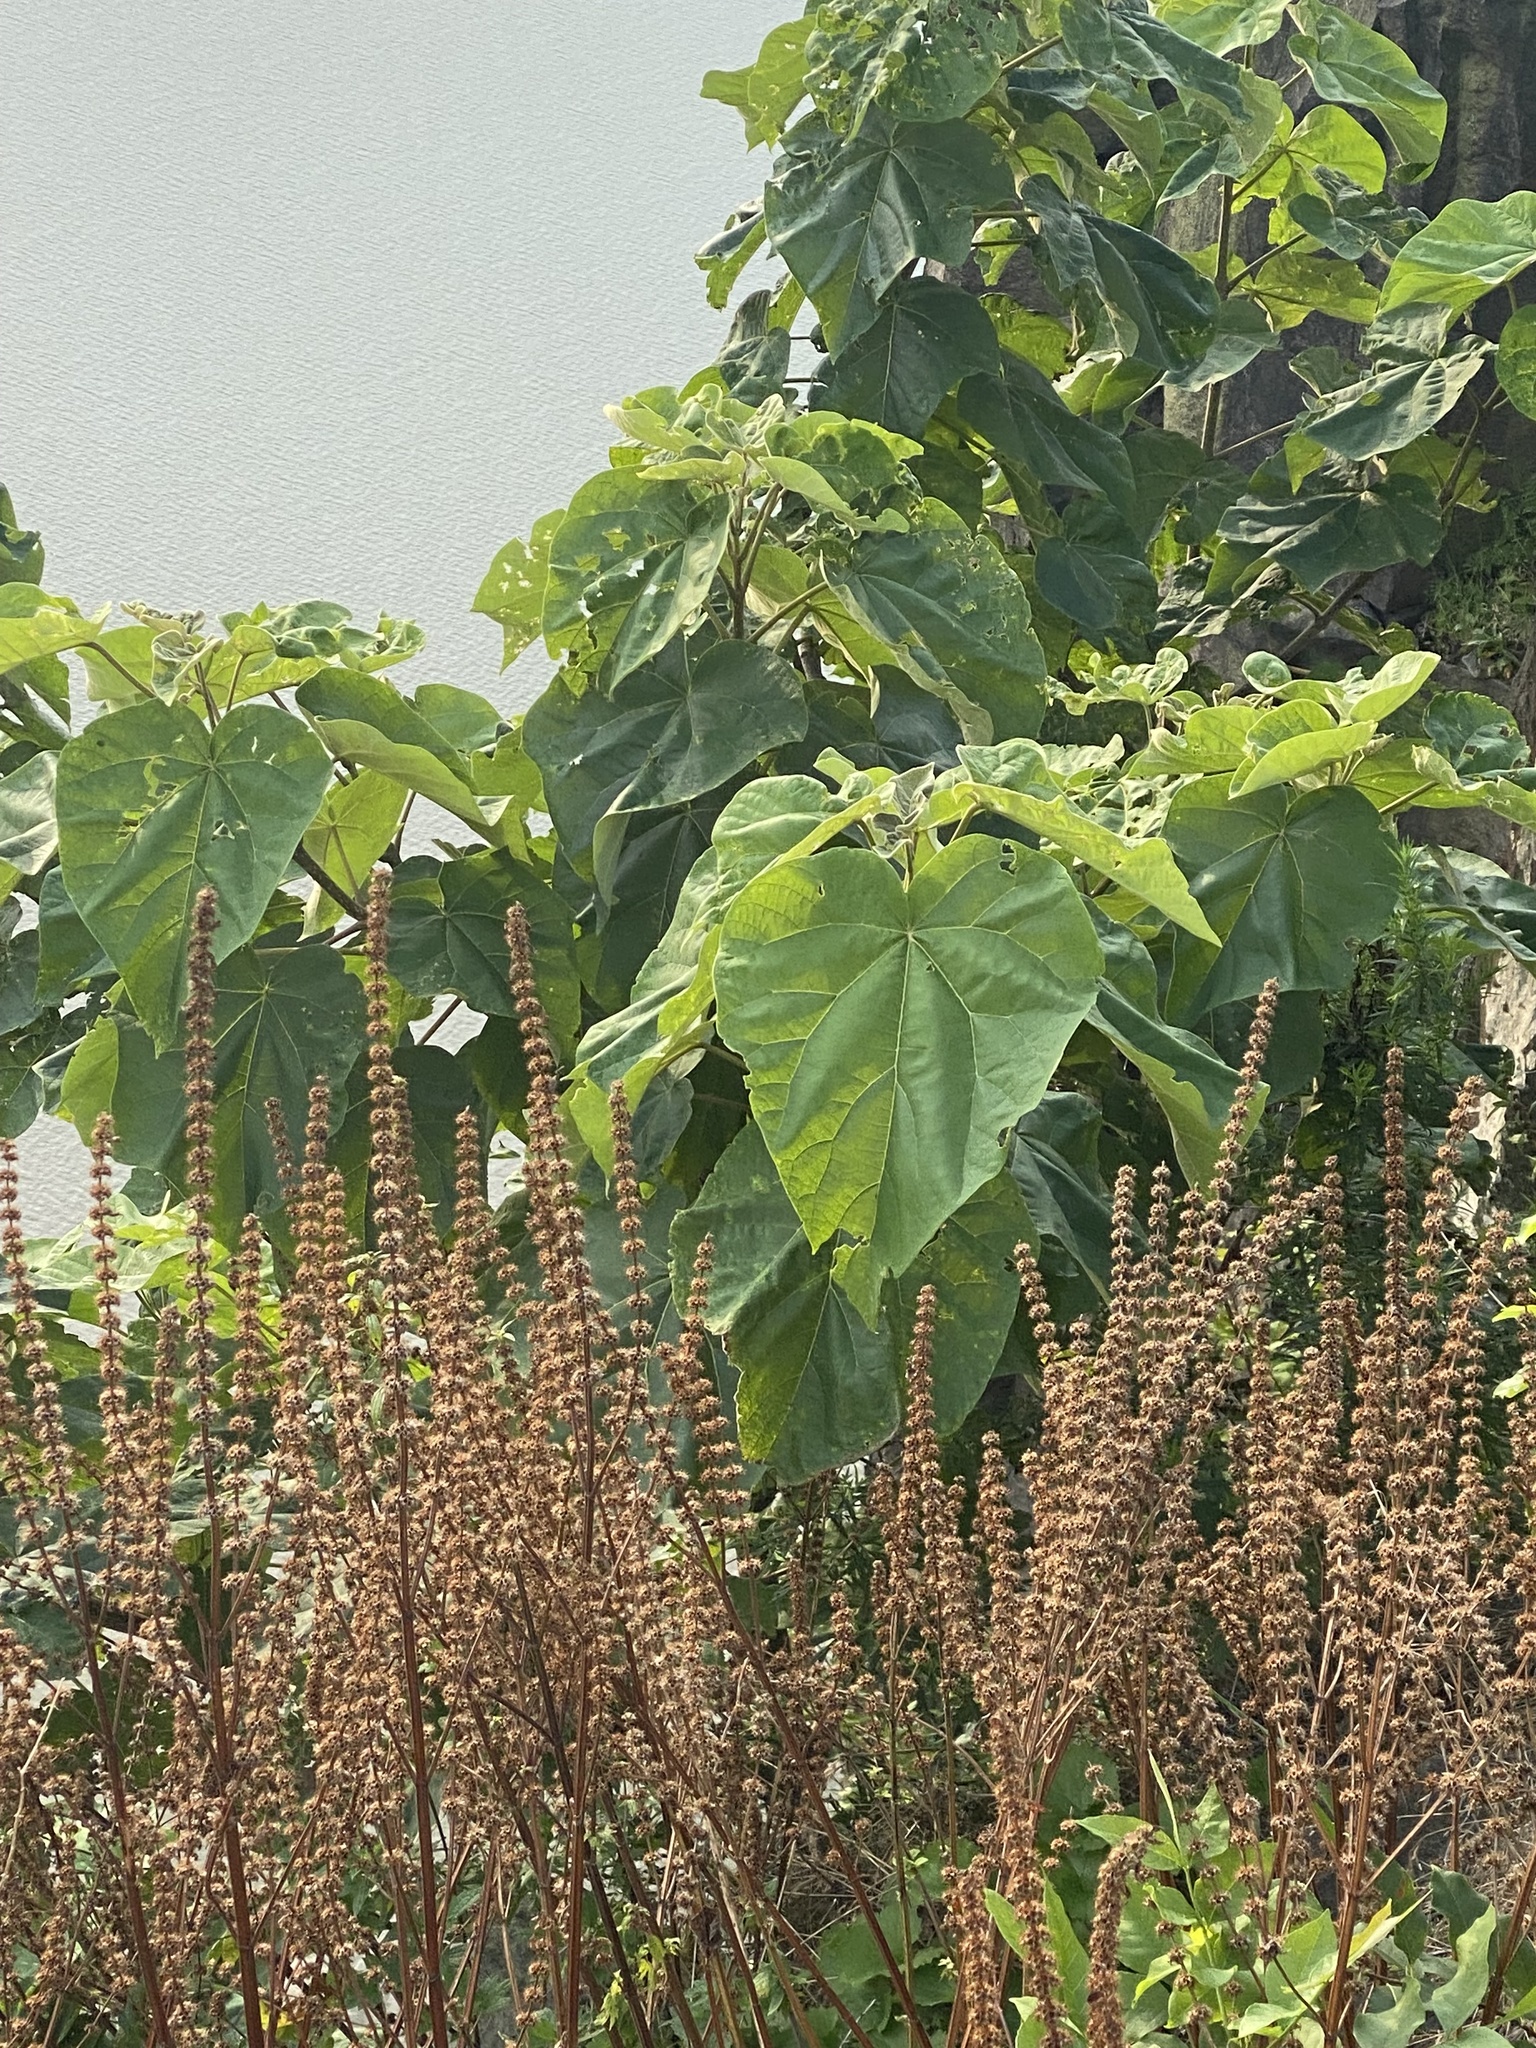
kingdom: Plantae
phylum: Tracheophyta
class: Magnoliopsida
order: Lamiales
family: Paulowniaceae
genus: Paulownia
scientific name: Paulownia tomentosa
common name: Foxglove-tree
